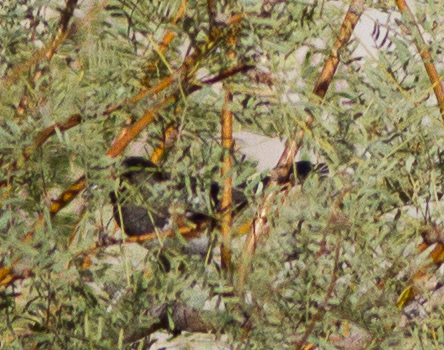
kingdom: Animalia
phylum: Chordata
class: Aves
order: Passeriformes
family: Passerellidae
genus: Pipilo
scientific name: Pipilo maculatus
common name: Spotted towhee
